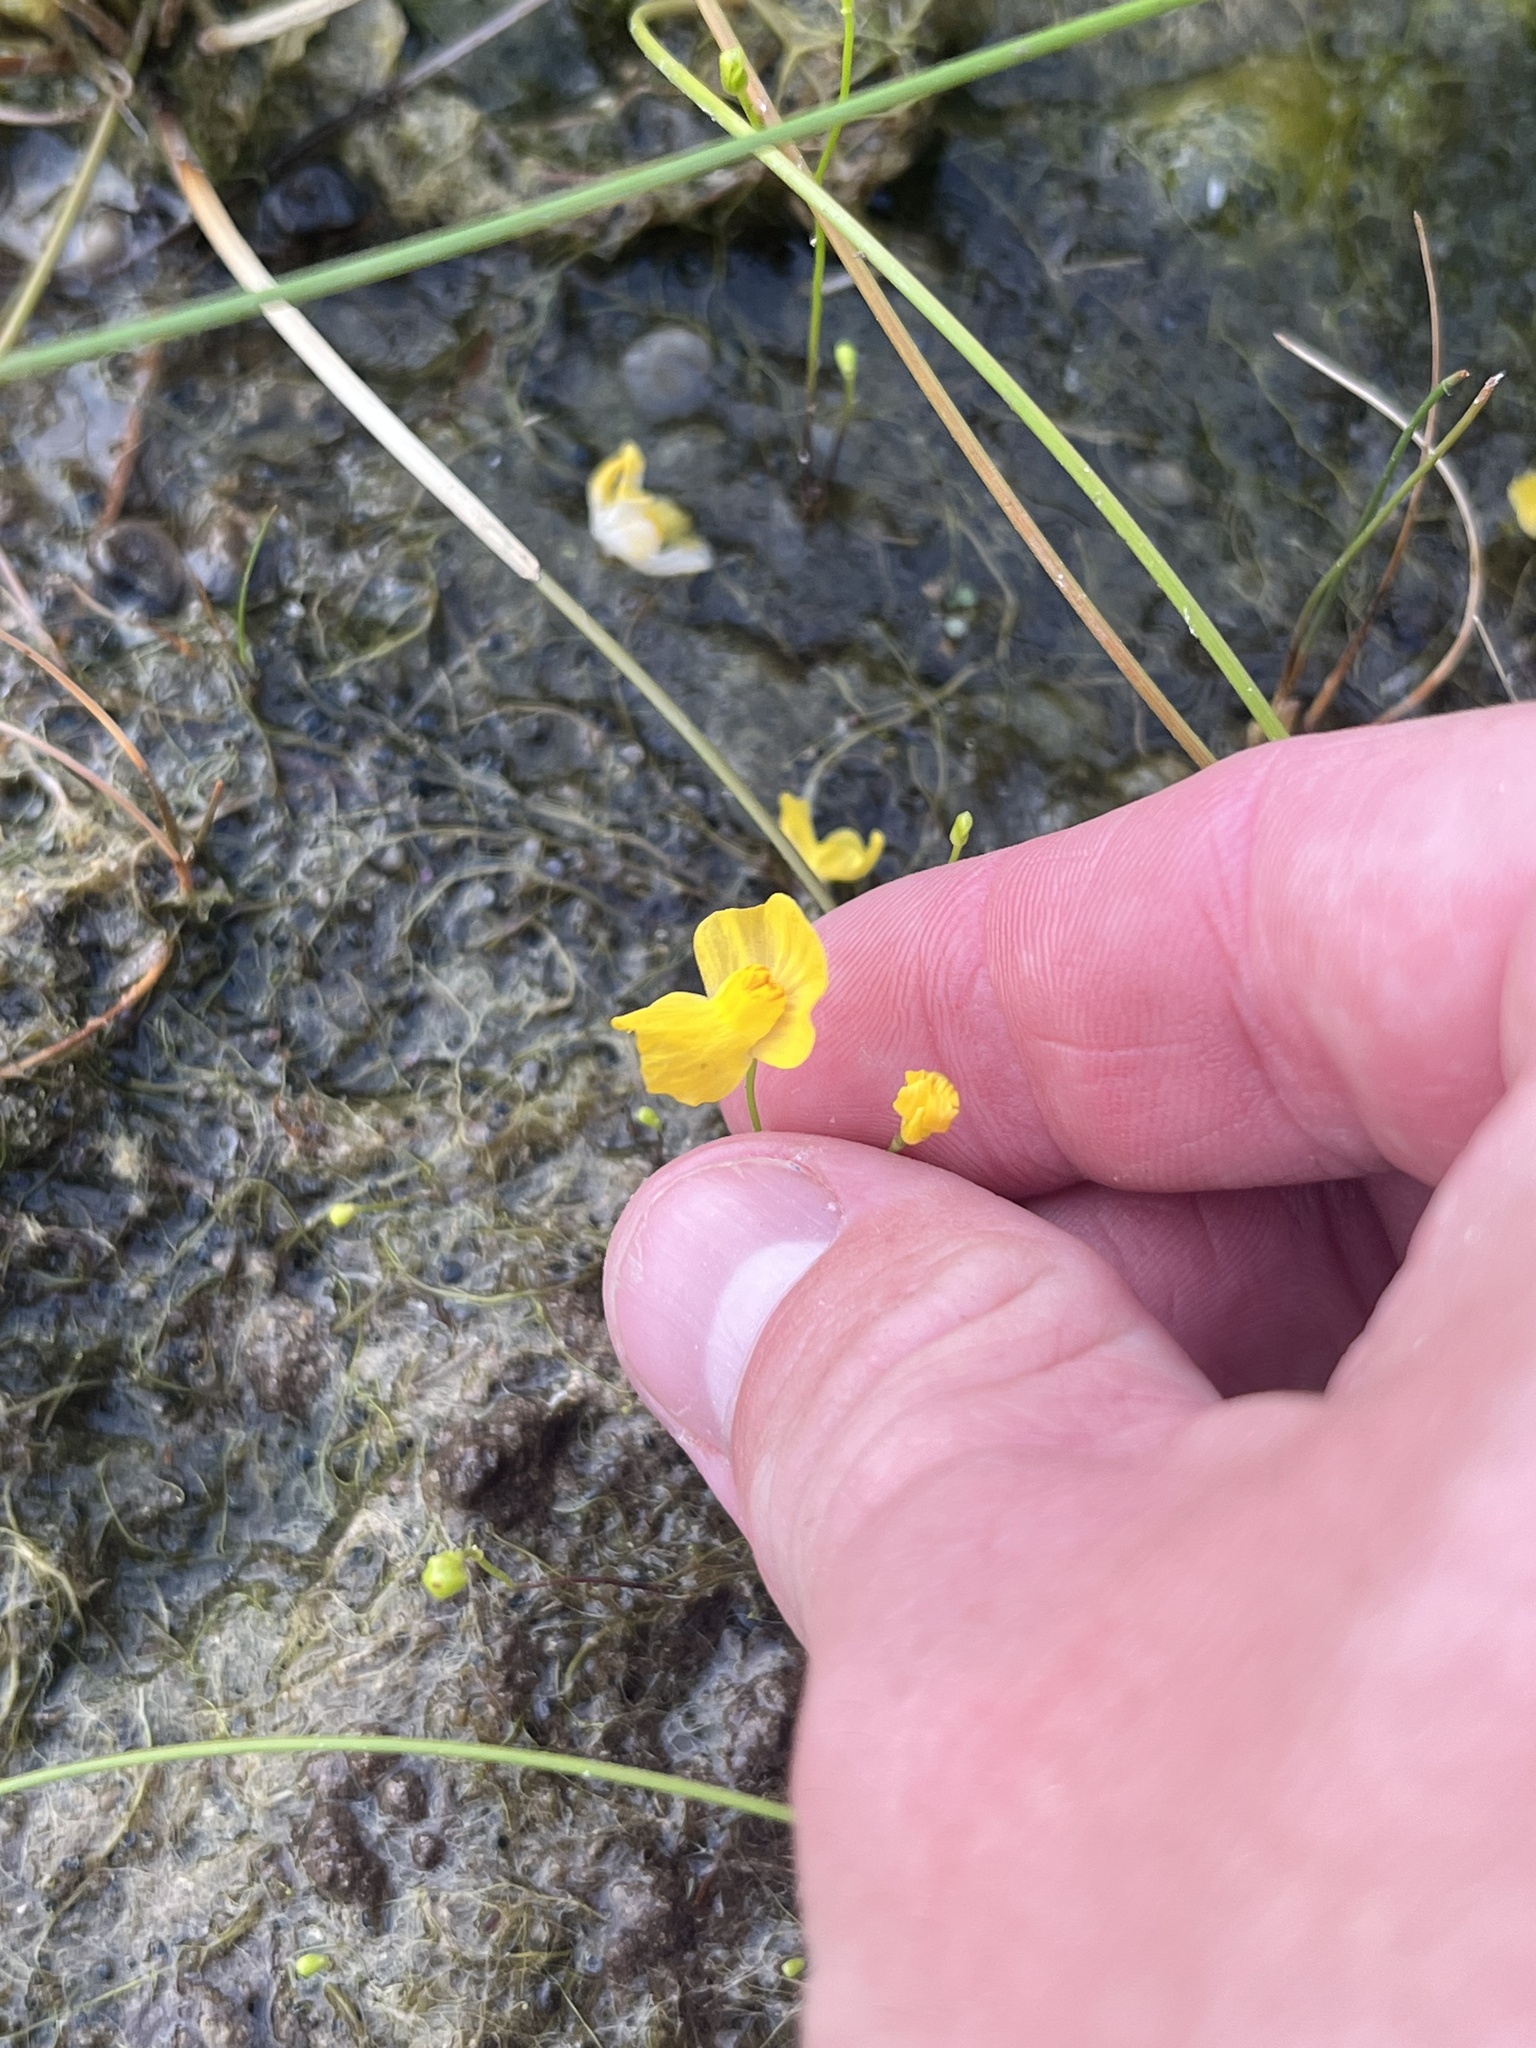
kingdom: Plantae
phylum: Tracheophyta
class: Magnoliopsida
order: Lamiales
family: Lentibulariaceae
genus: Utricularia
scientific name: Utricularia gibba
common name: Humped bladderwort
